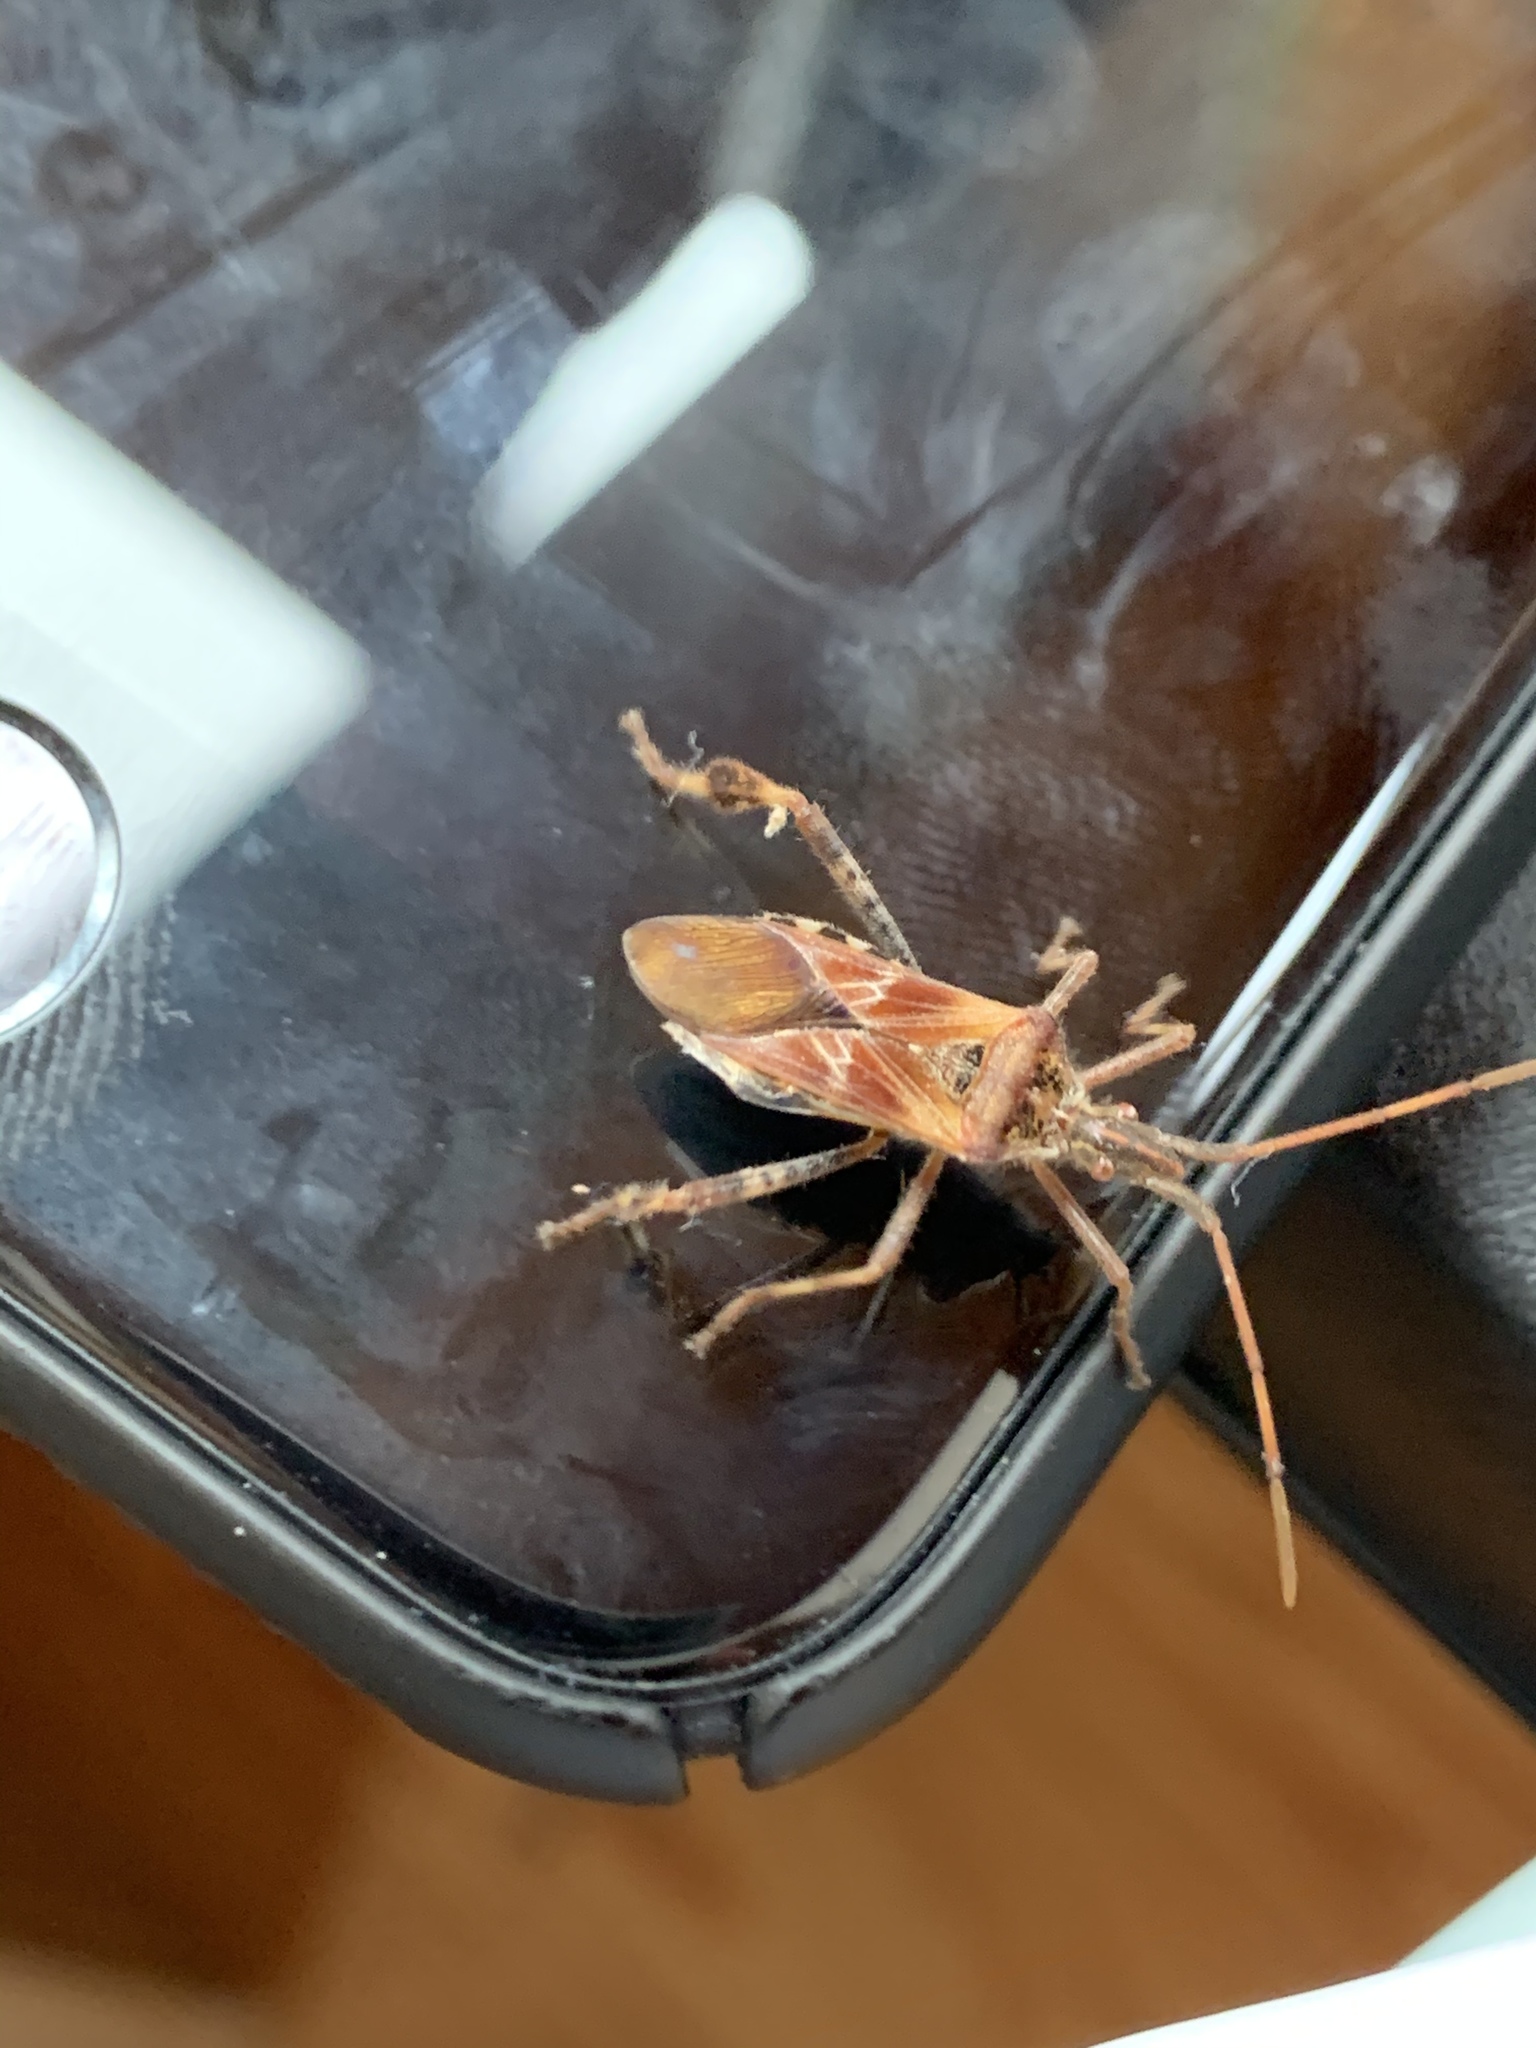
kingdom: Animalia
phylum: Arthropoda
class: Insecta
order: Hemiptera
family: Coreidae
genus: Leptoglossus
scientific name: Leptoglossus occidentalis
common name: Western conifer-seed bug
